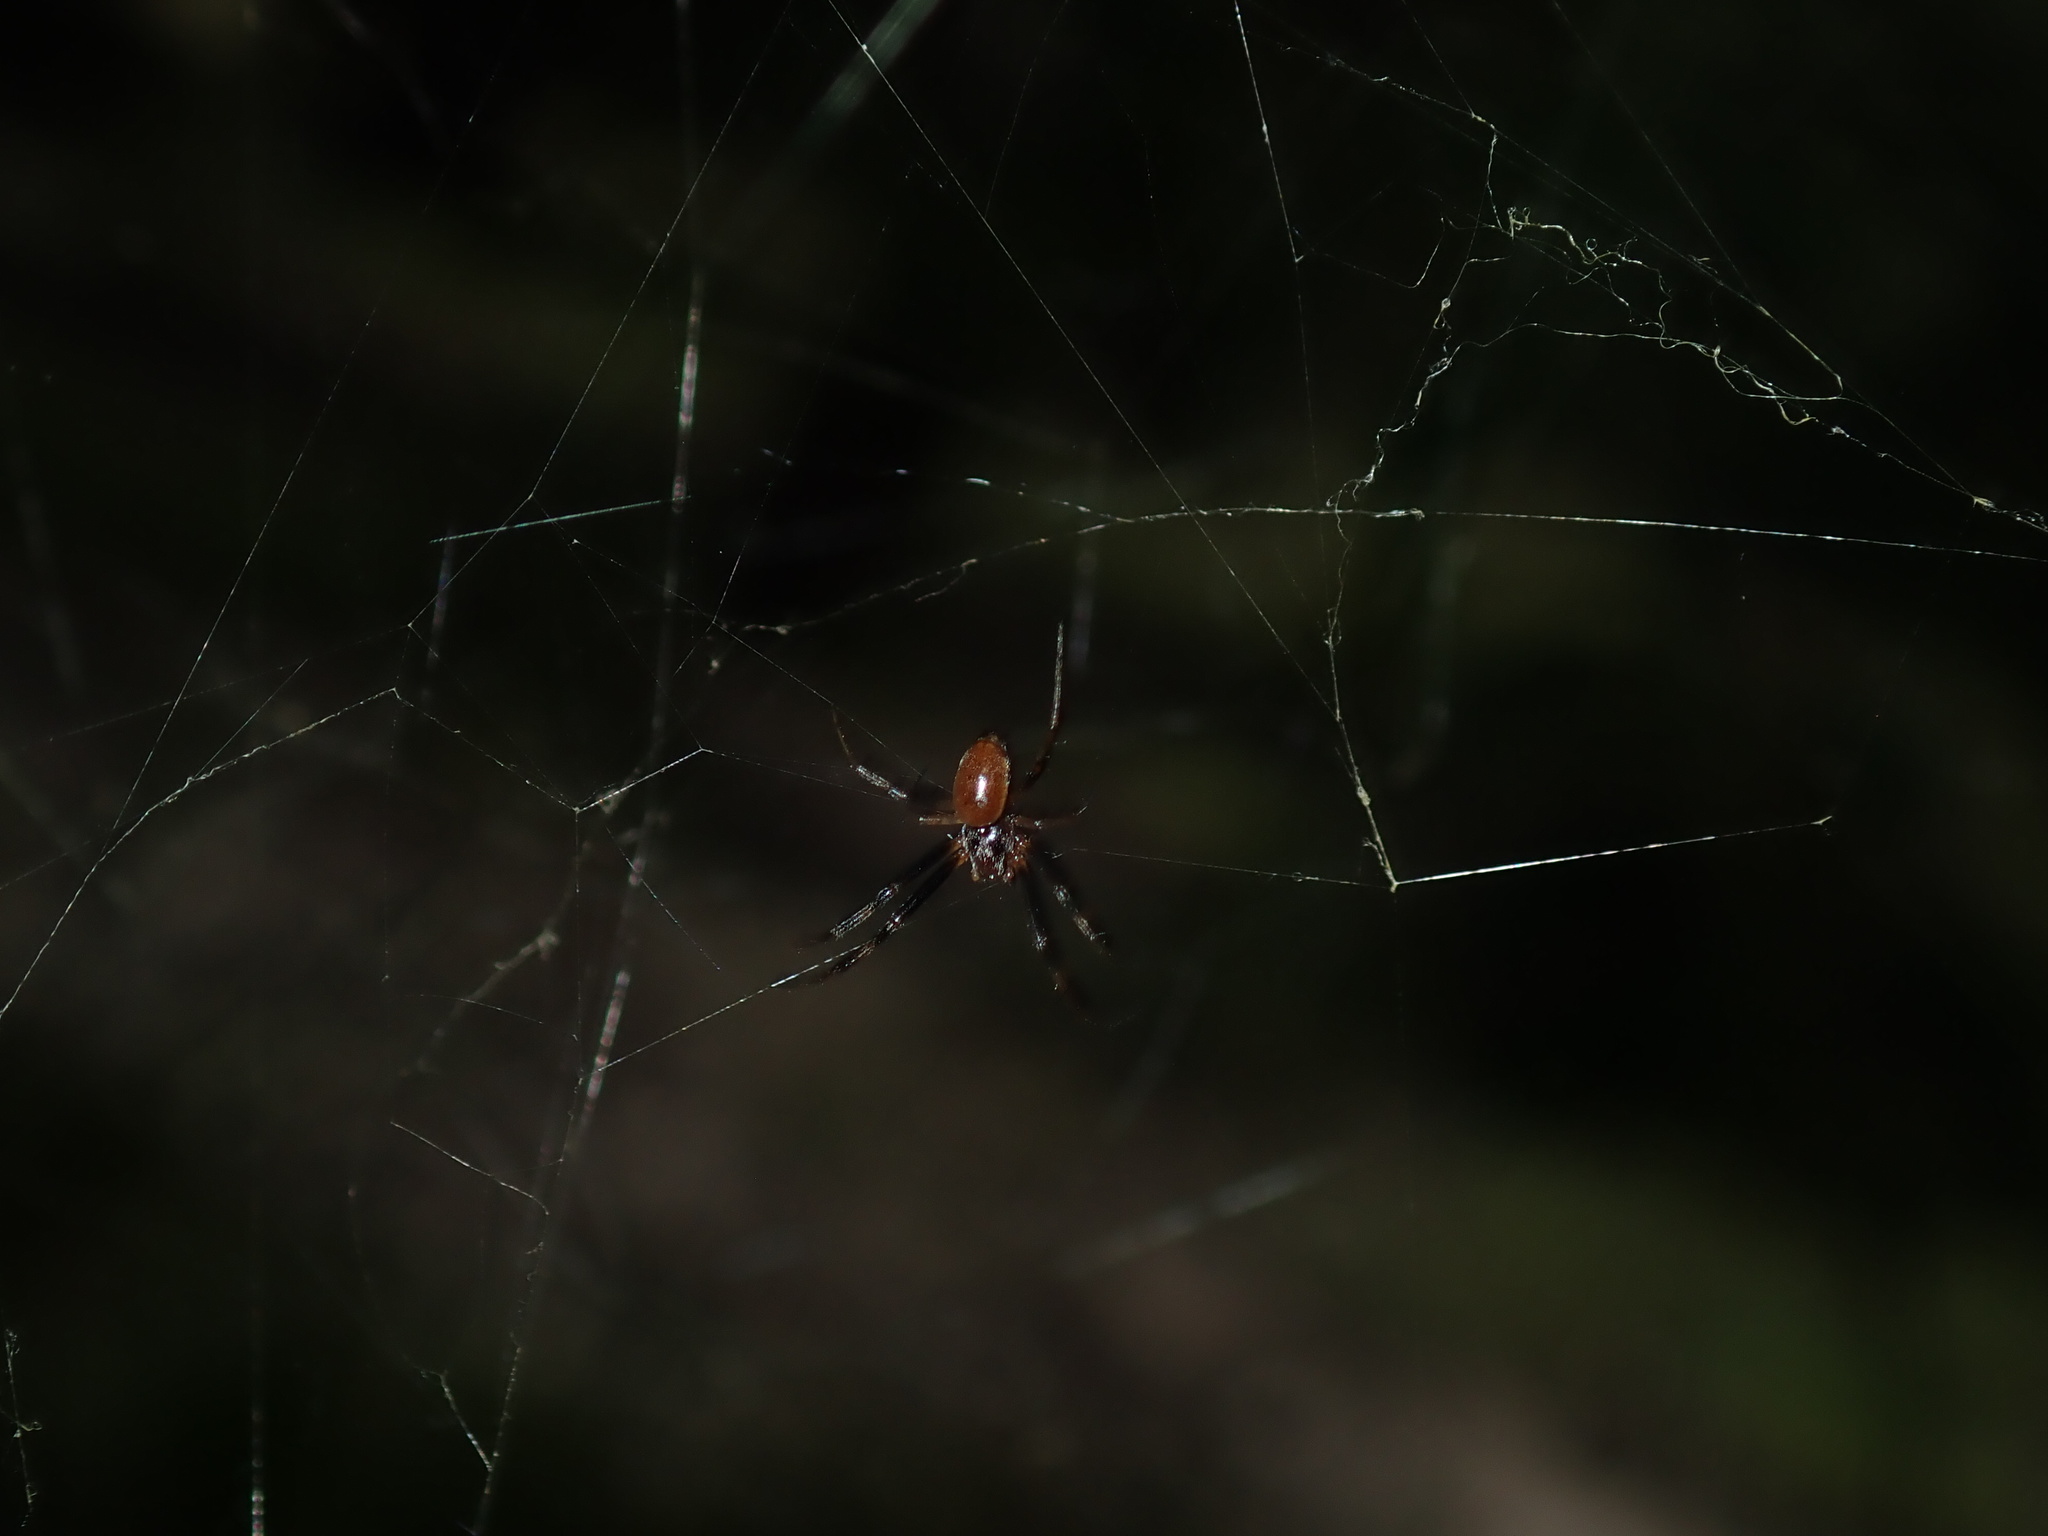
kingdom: Animalia
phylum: Arthropoda
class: Arachnida
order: Araneae
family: Araneidae
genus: Trichonephila
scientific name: Trichonephila edulis
